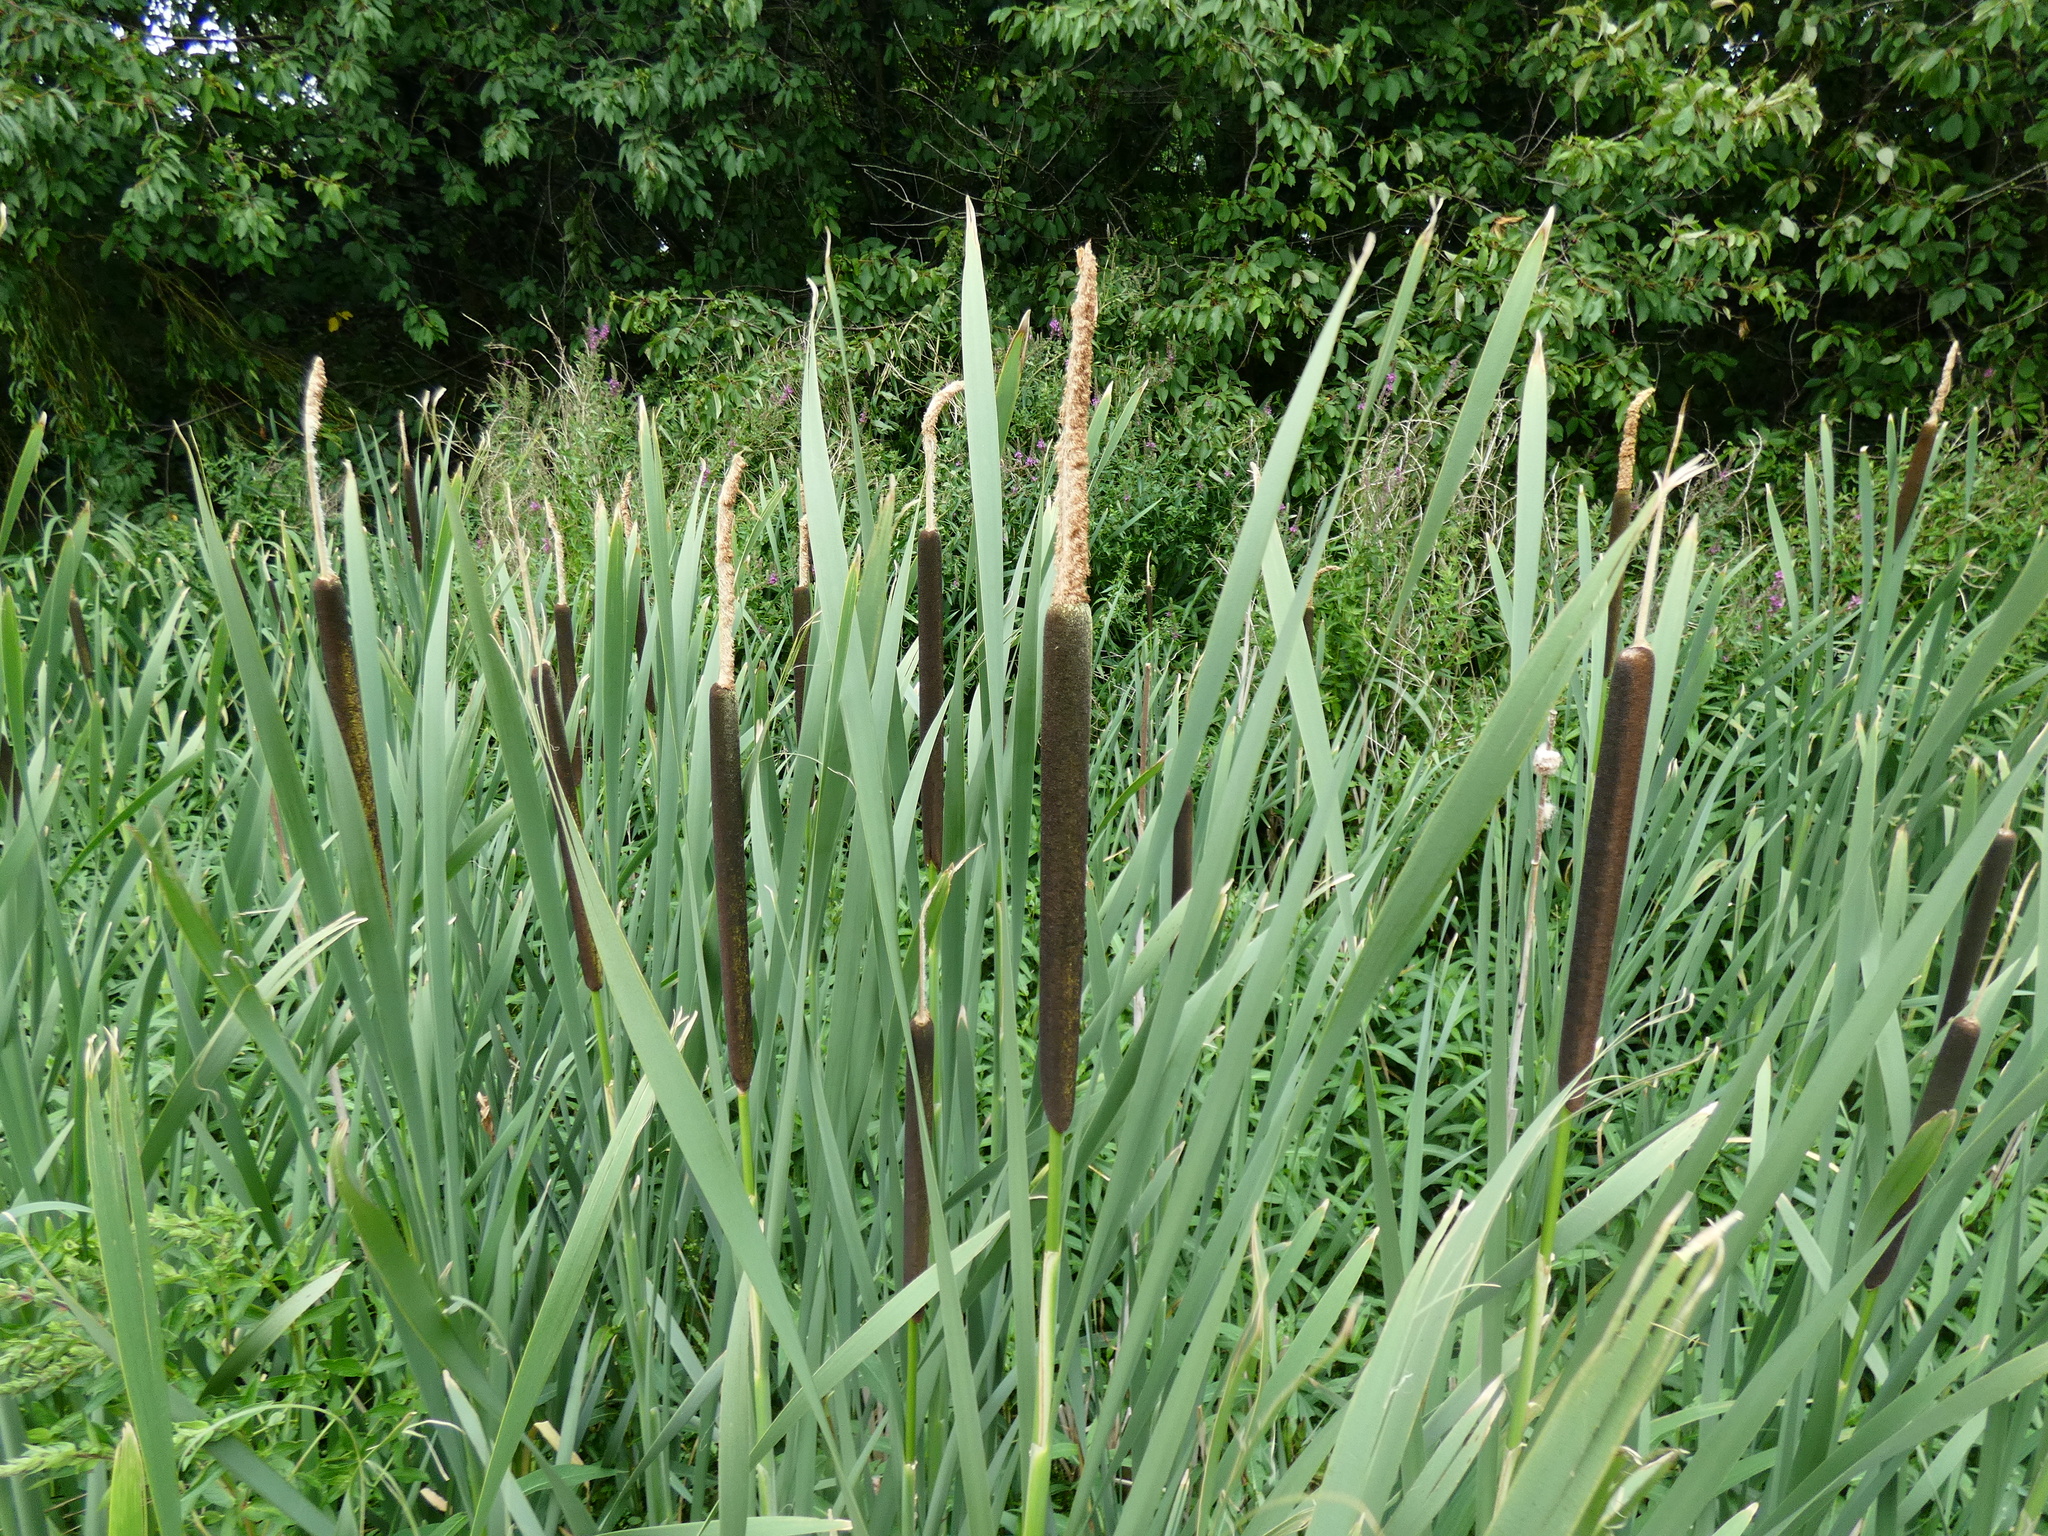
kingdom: Plantae
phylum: Tracheophyta
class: Liliopsida
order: Poales
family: Typhaceae
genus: Typha
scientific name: Typha latifolia
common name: Broadleaf cattail
